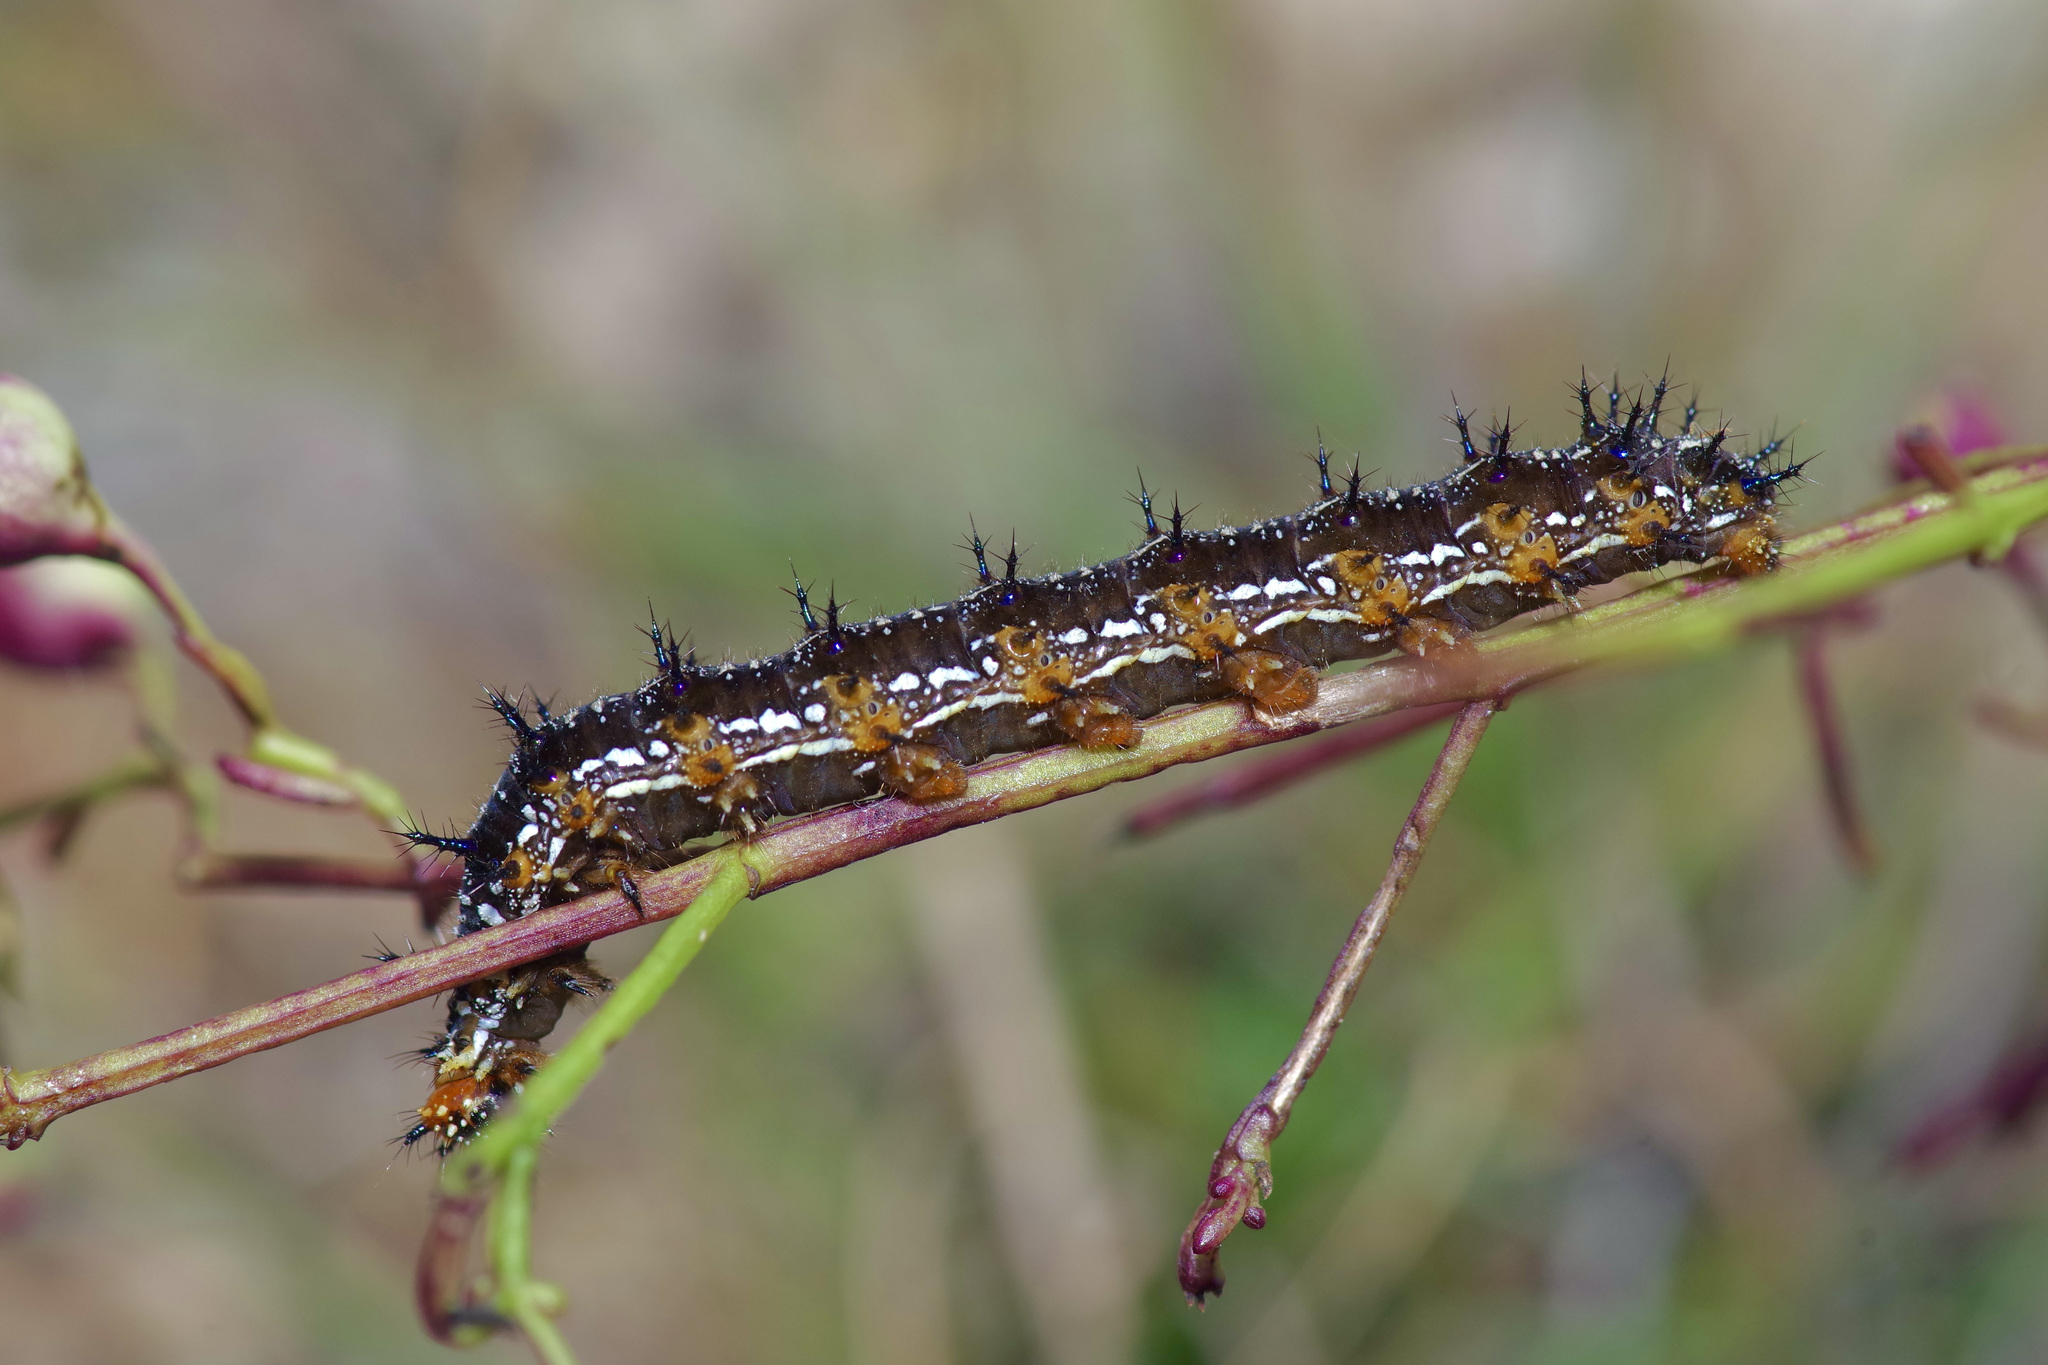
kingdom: Animalia
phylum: Arthropoda
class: Insecta
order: Lepidoptera
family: Nymphalidae
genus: Junonia
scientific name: Junonia coenia
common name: Common buckeye
